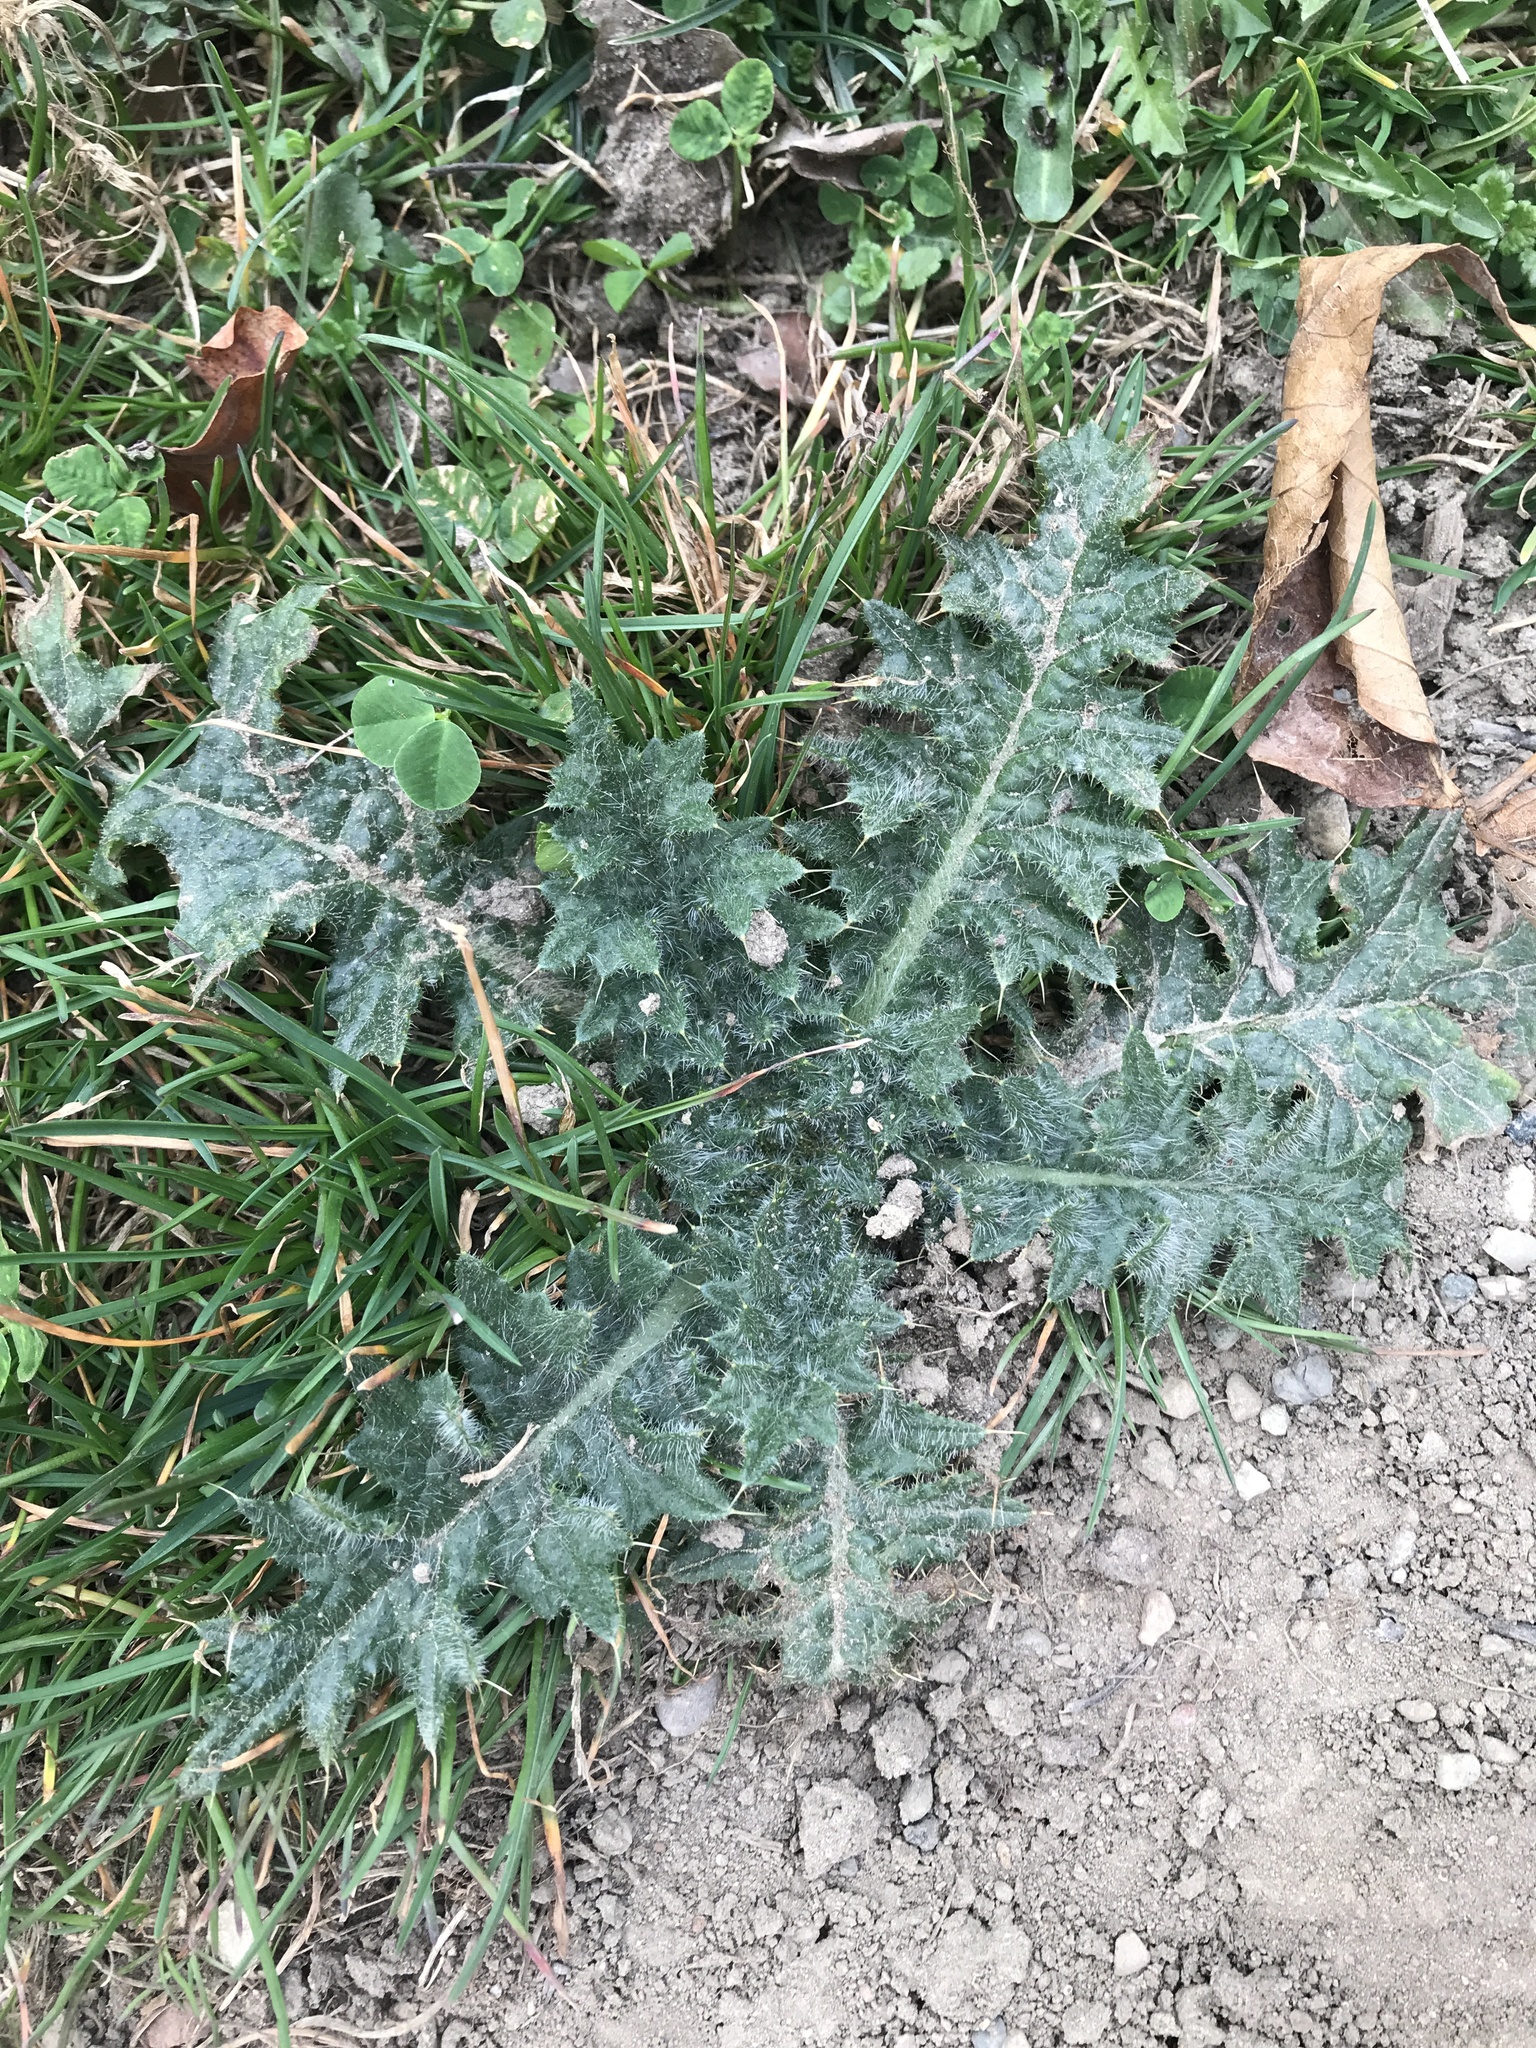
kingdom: Plantae
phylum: Tracheophyta
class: Magnoliopsida
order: Asterales
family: Asteraceae
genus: Cirsium
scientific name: Cirsium vulgare
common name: Bull thistle
